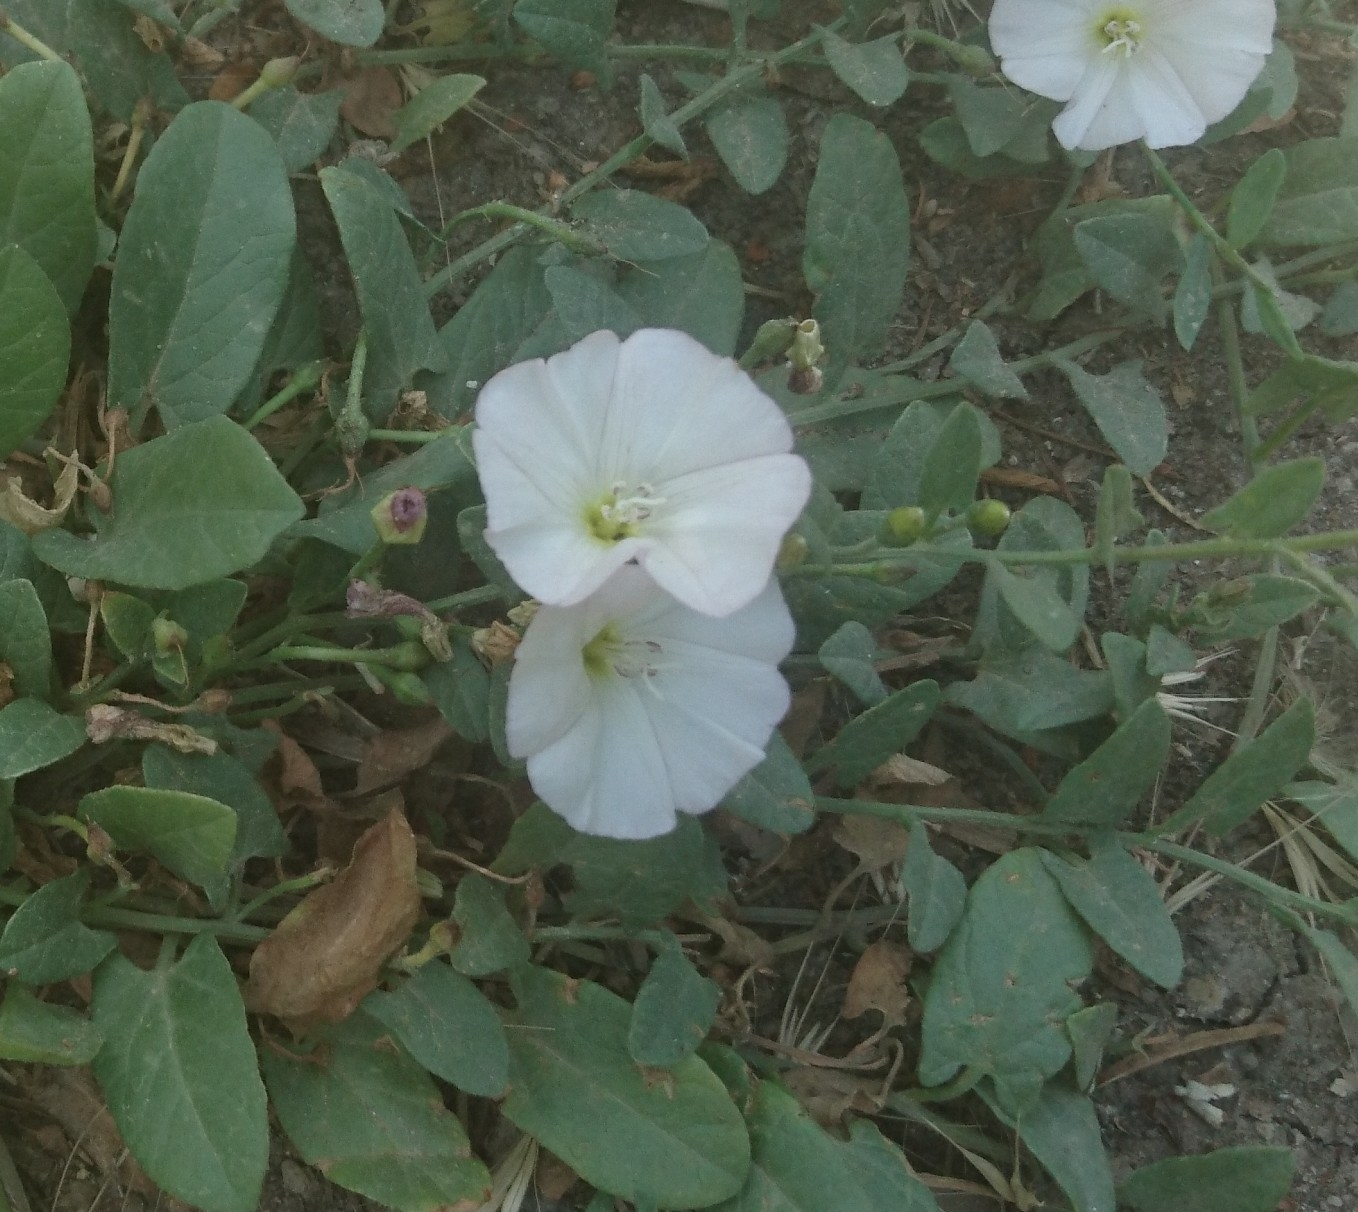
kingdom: Plantae
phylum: Tracheophyta
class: Magnoliopsida
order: Solanales
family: Convolvulaceae
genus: Convolvulus
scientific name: Convolvulus arvensis
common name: Field bindweed
